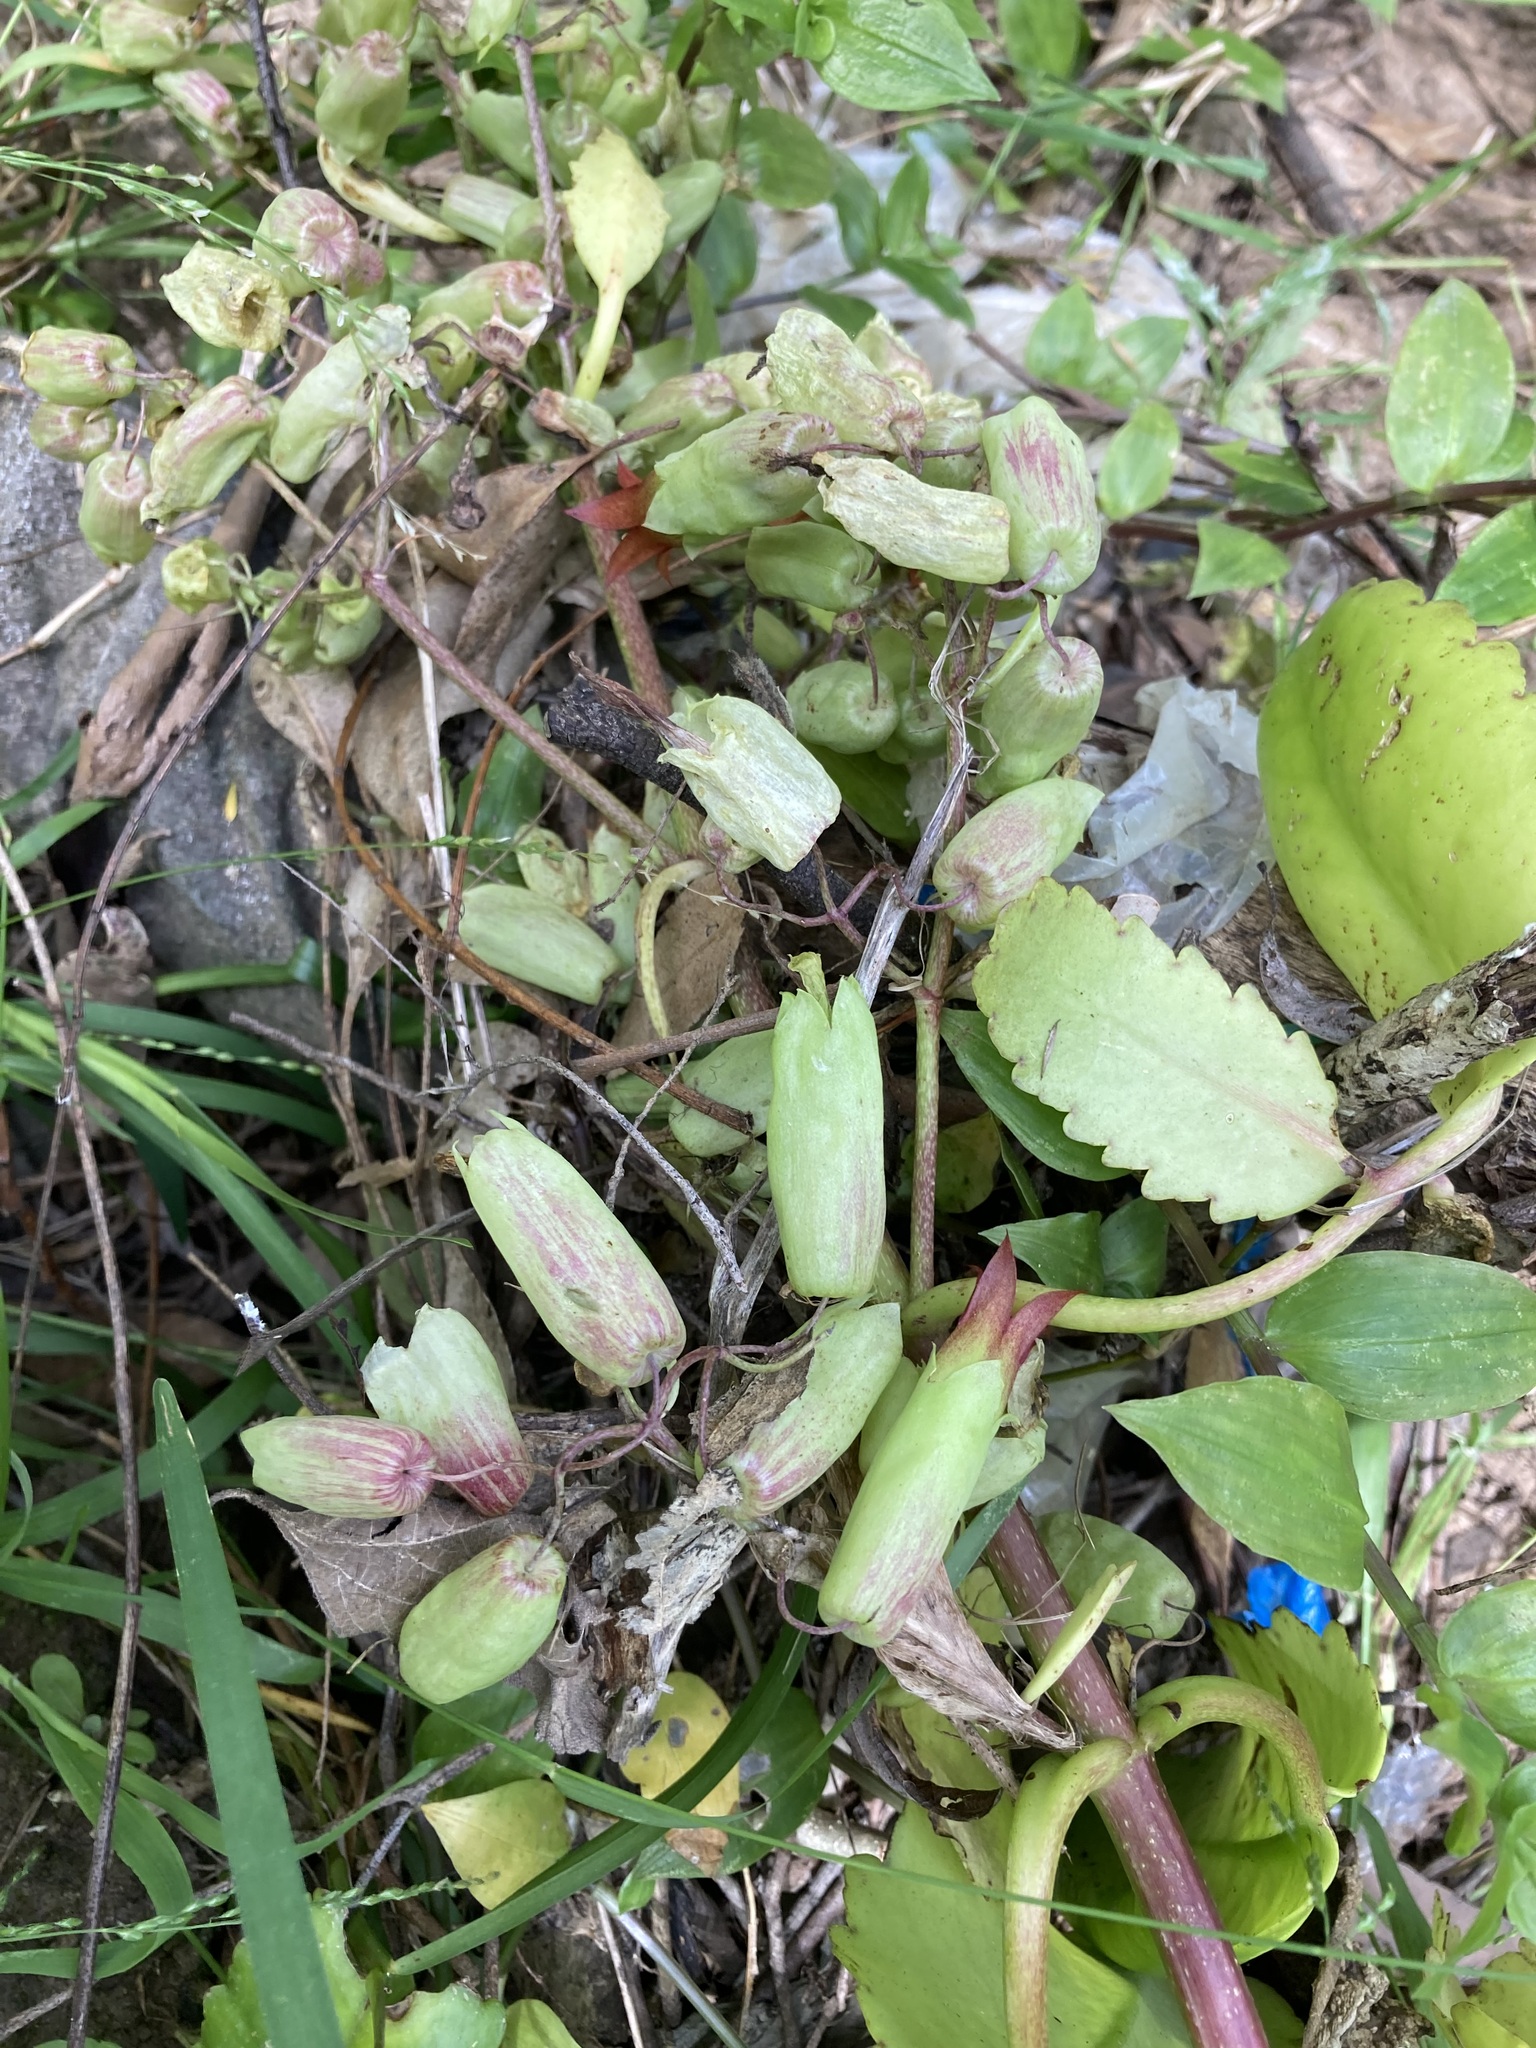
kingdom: Plantae
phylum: Tracheophyta
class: Magnoliopsida
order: Saxifragales
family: Crassulaceae
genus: Kalanchoe
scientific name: Kalanchoe pinnata
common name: Cathedral bells
